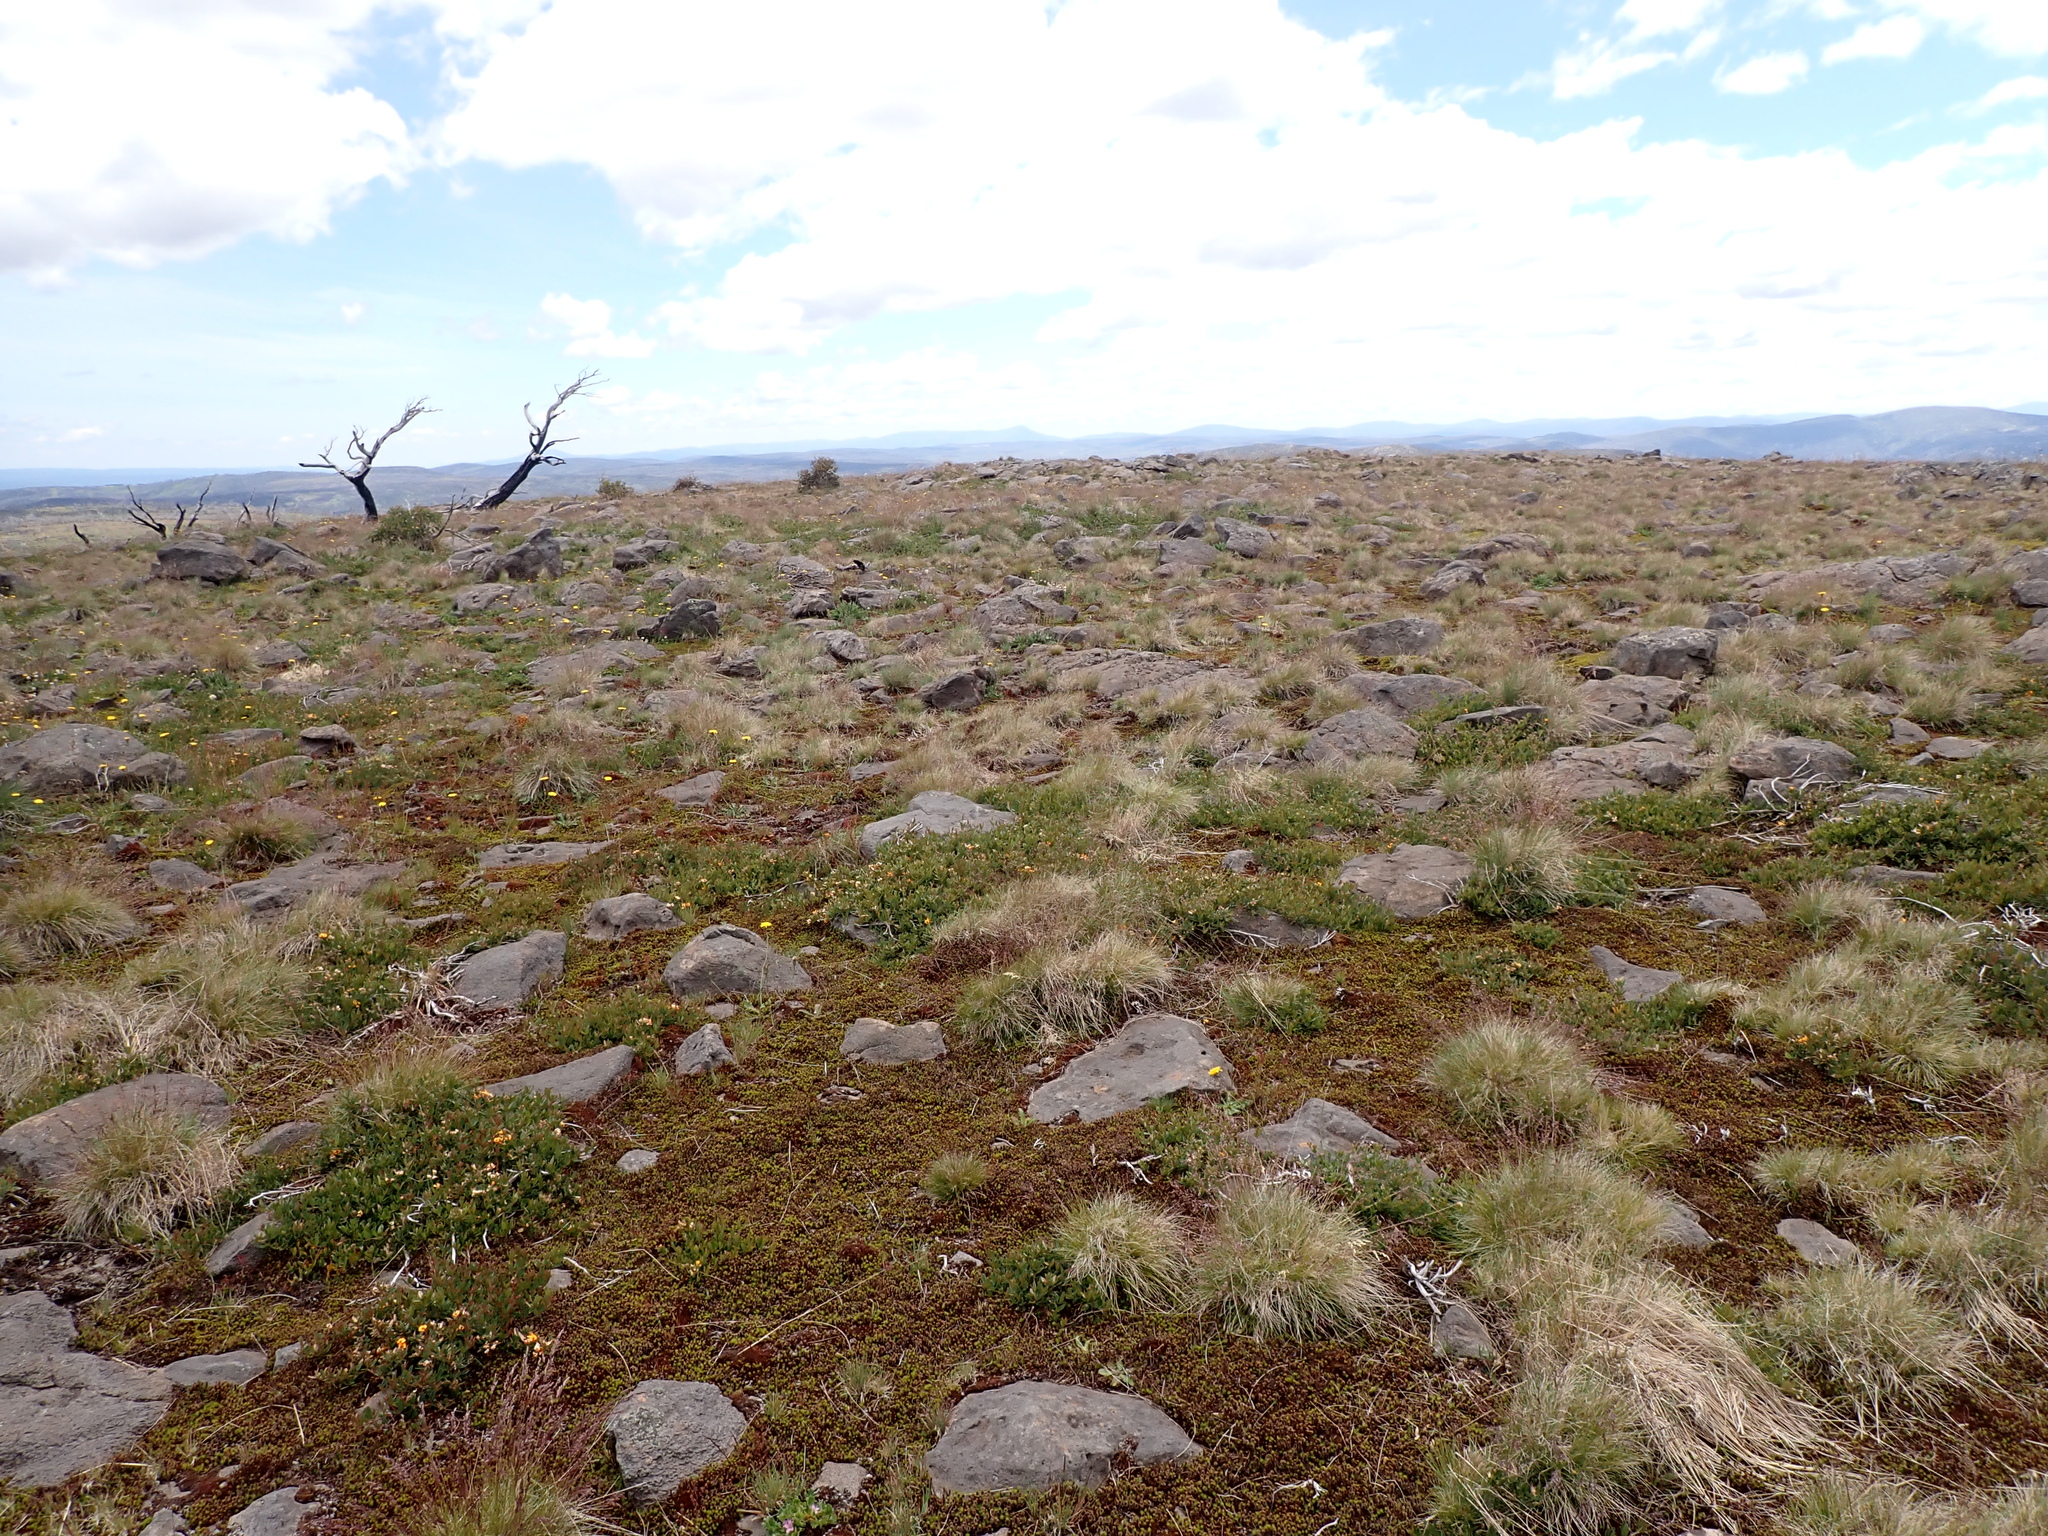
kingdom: Plantae
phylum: Tracheophyta
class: Magnoliopsida
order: Fabales
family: Fabaceae
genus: Podolobium
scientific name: Podolobium alpestre
